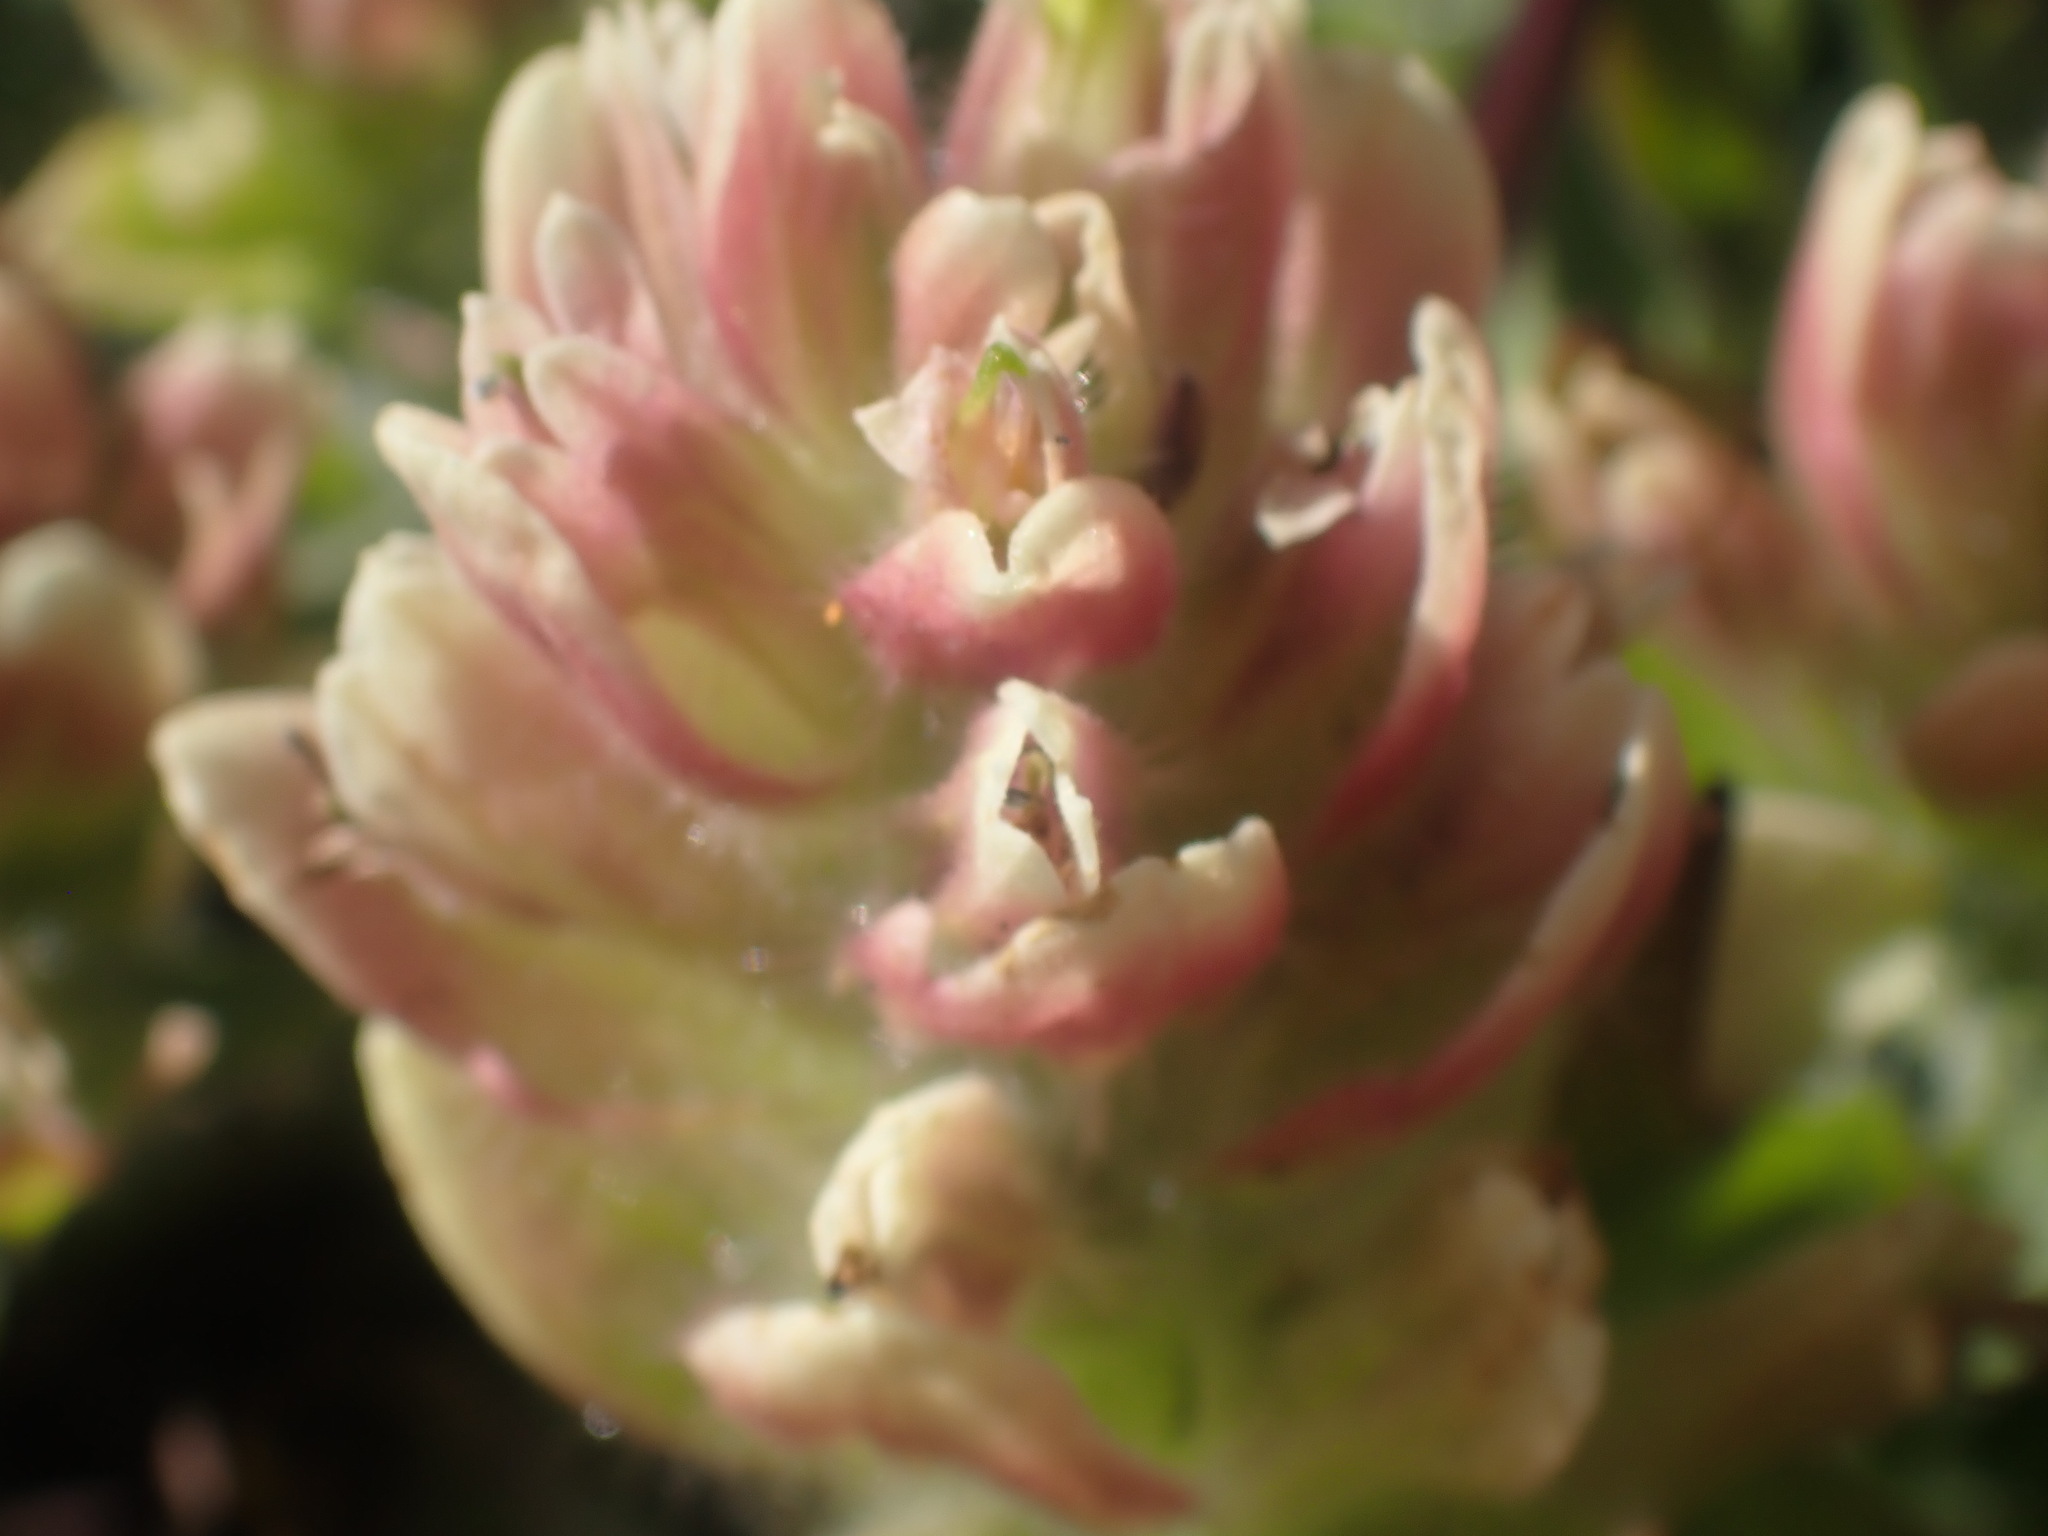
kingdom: Plantae
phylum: Tracheophyta
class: Magnoliopsida
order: Lamiales
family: Orobanchaceae
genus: Castilleja
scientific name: Castilleja occidentalis
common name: Western paintbrush
